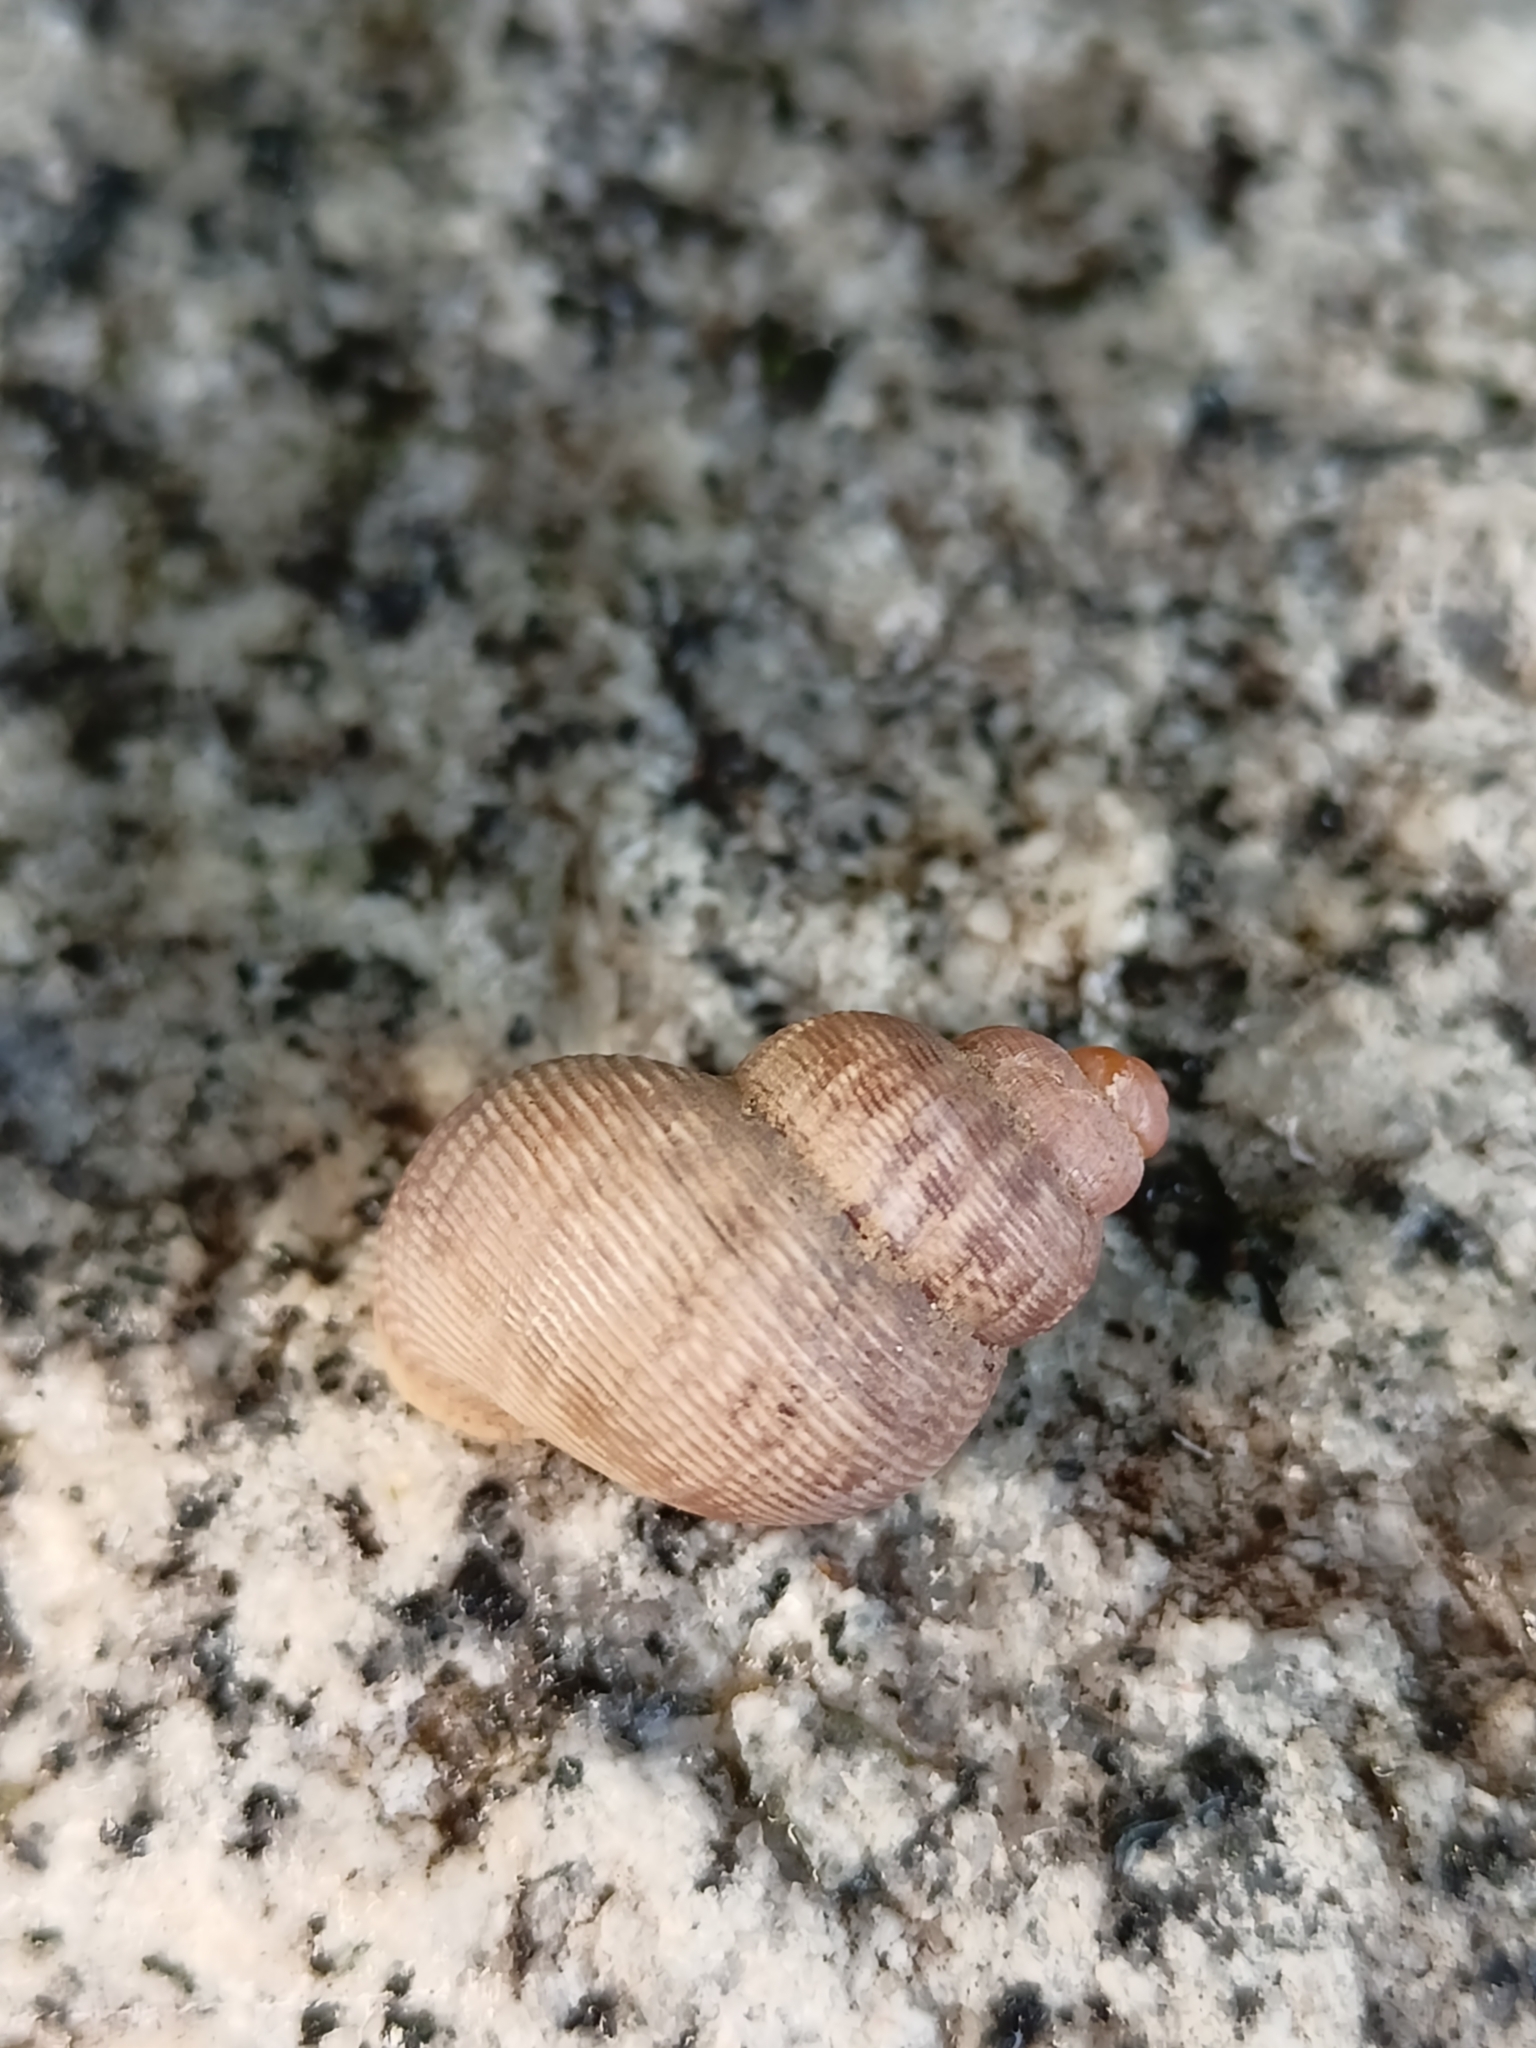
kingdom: Animalia
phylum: Mollusca
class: Gastropoda
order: Littorinimorpha
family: Pomatiidae
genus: Pomatias
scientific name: Pomatias elegans
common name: Red-mouthed snail
